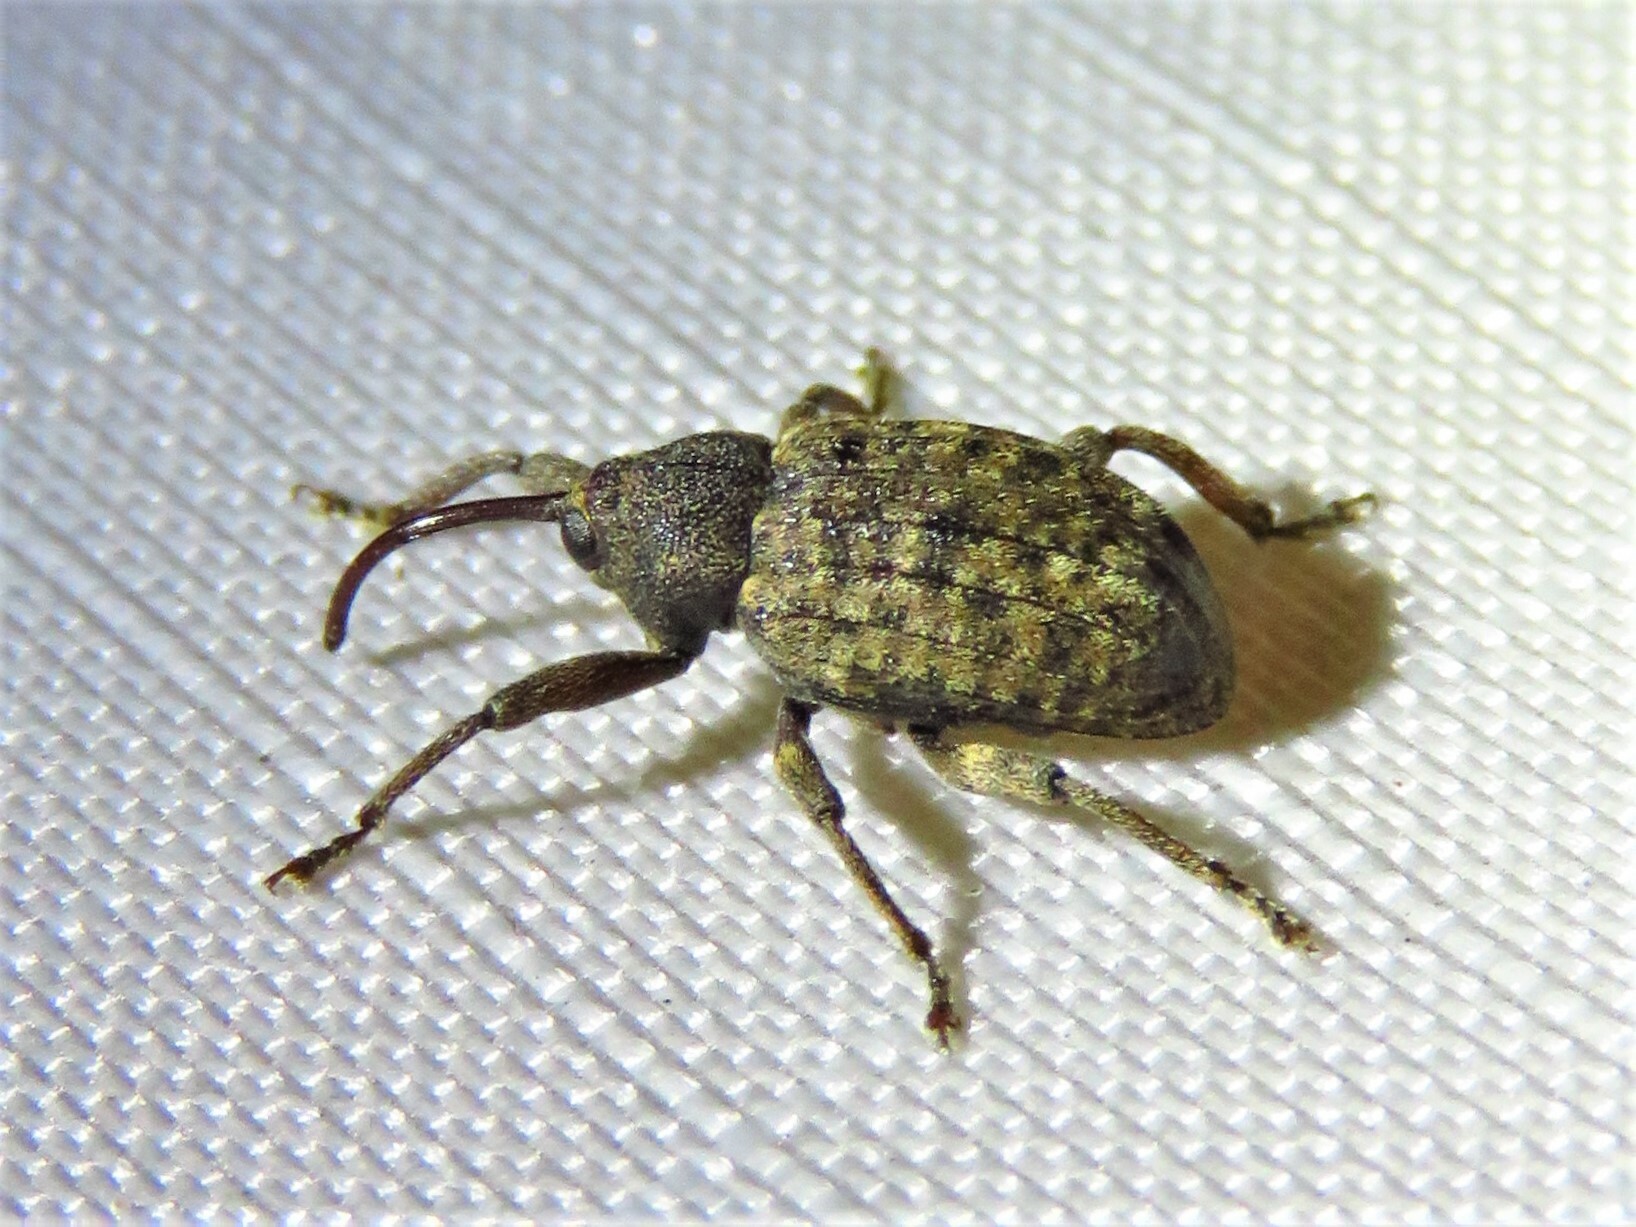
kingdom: Animalia
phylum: Arthropoda
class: Insecta
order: Coleoptera
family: Curculionidae
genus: Conotrachelus
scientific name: Conotrachelus naso
